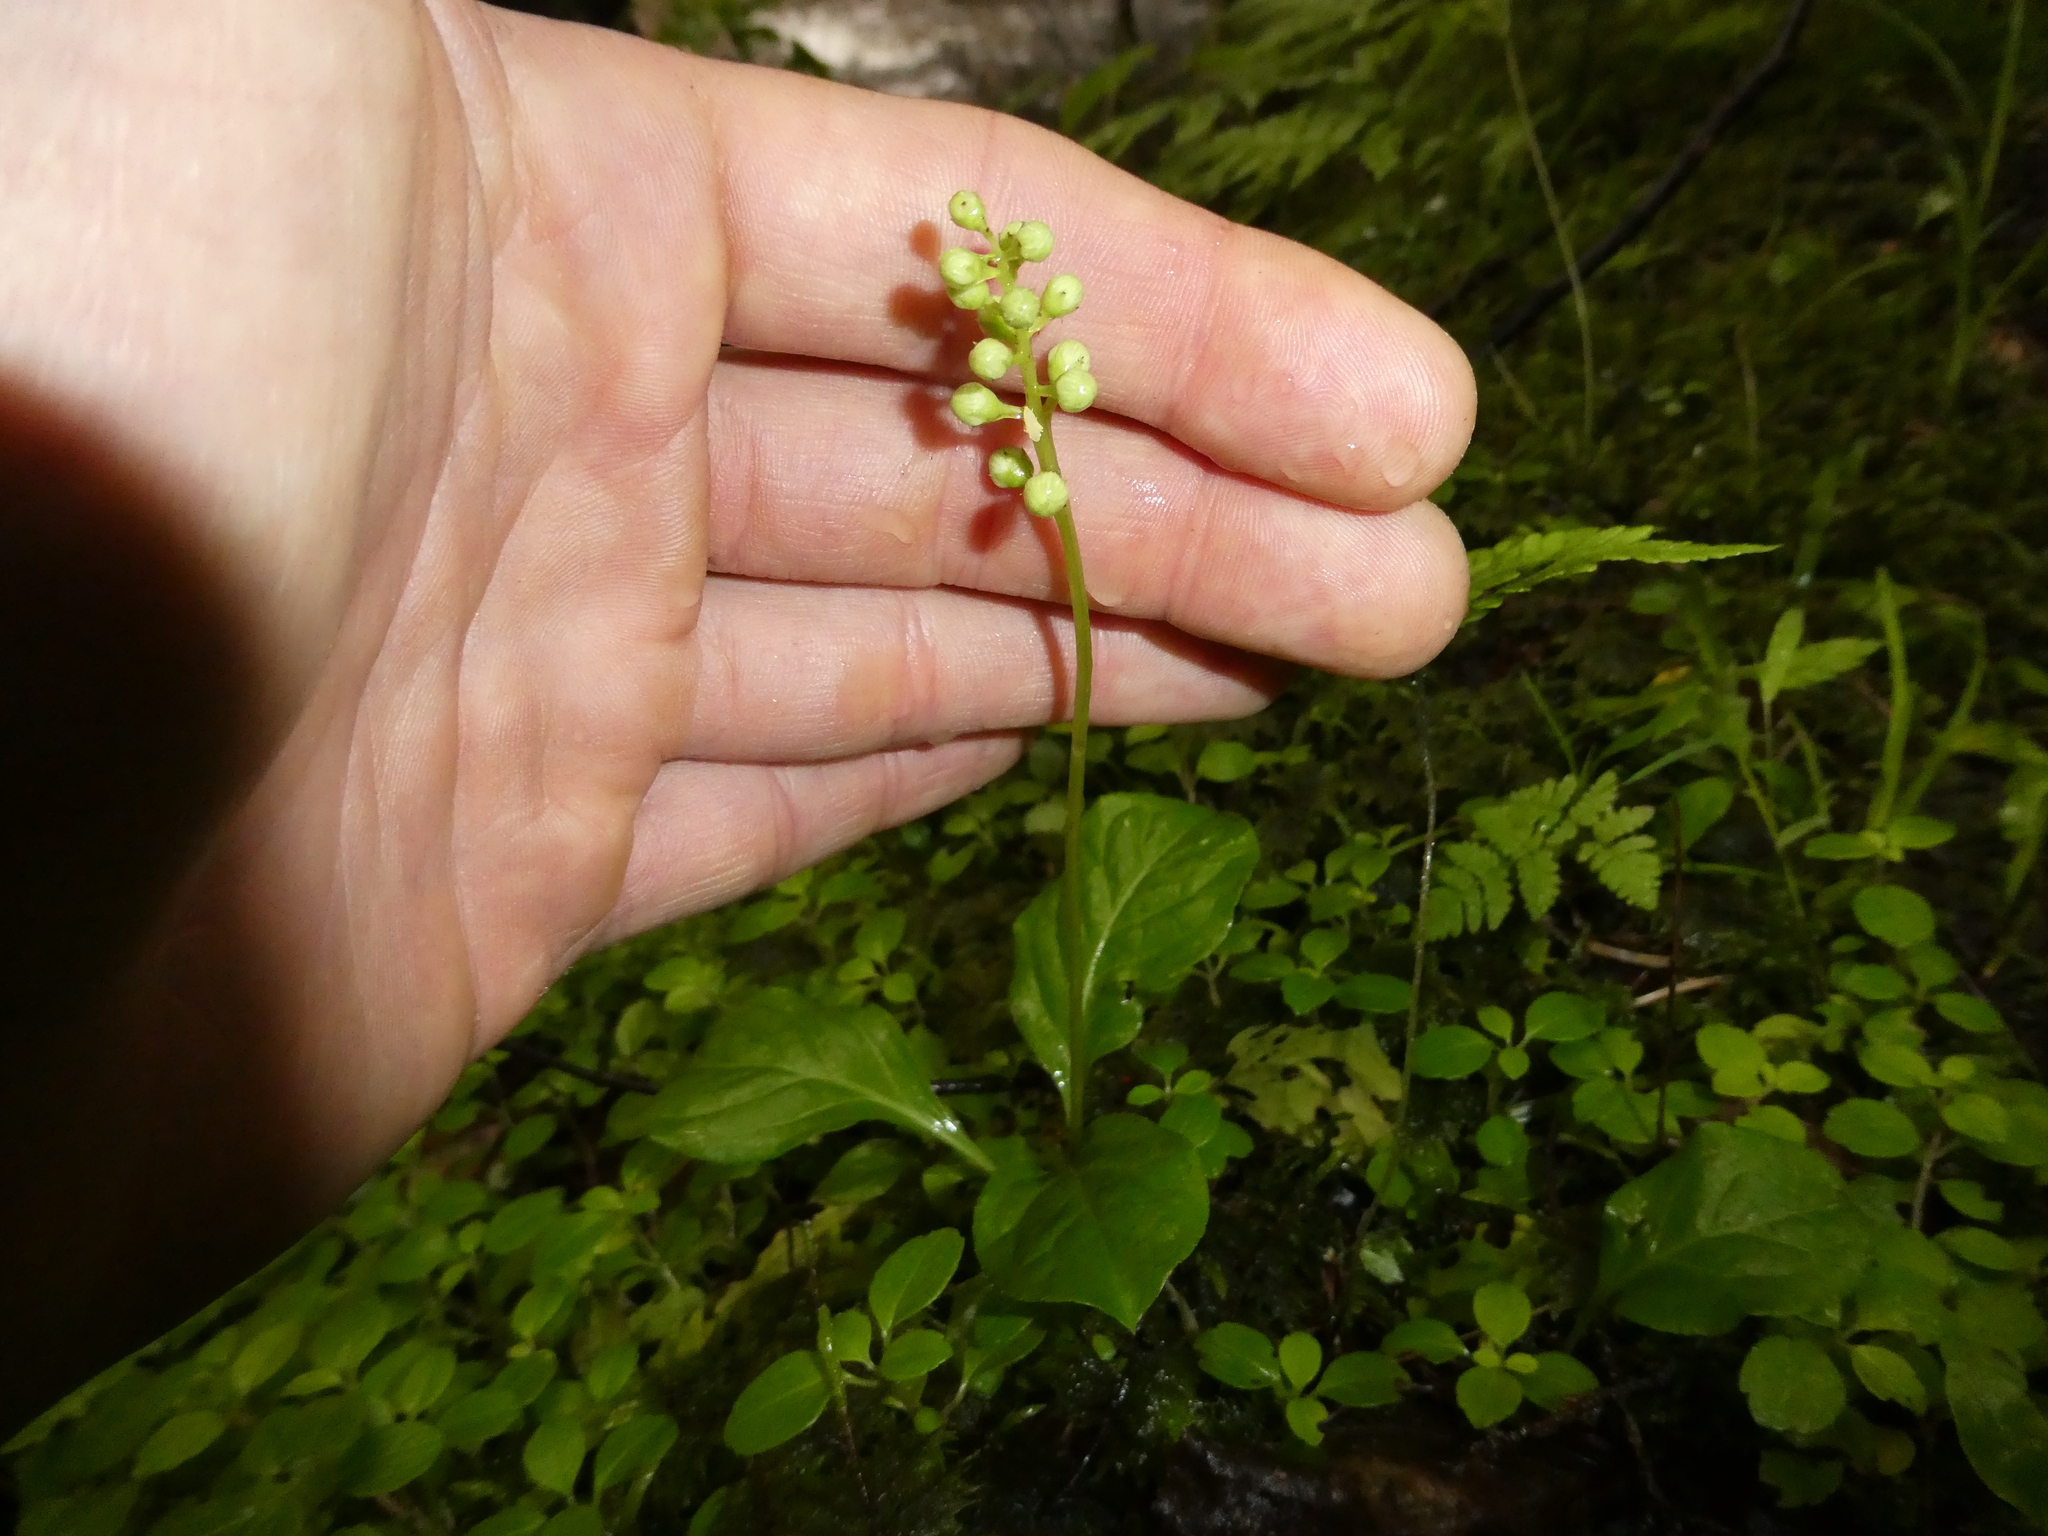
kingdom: Plantae
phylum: Tracheophyta
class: Magnoliopsida
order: Ericales
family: Ericaceae
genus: Pyrola
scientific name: Pyrola elliptica
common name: Shinleaf
